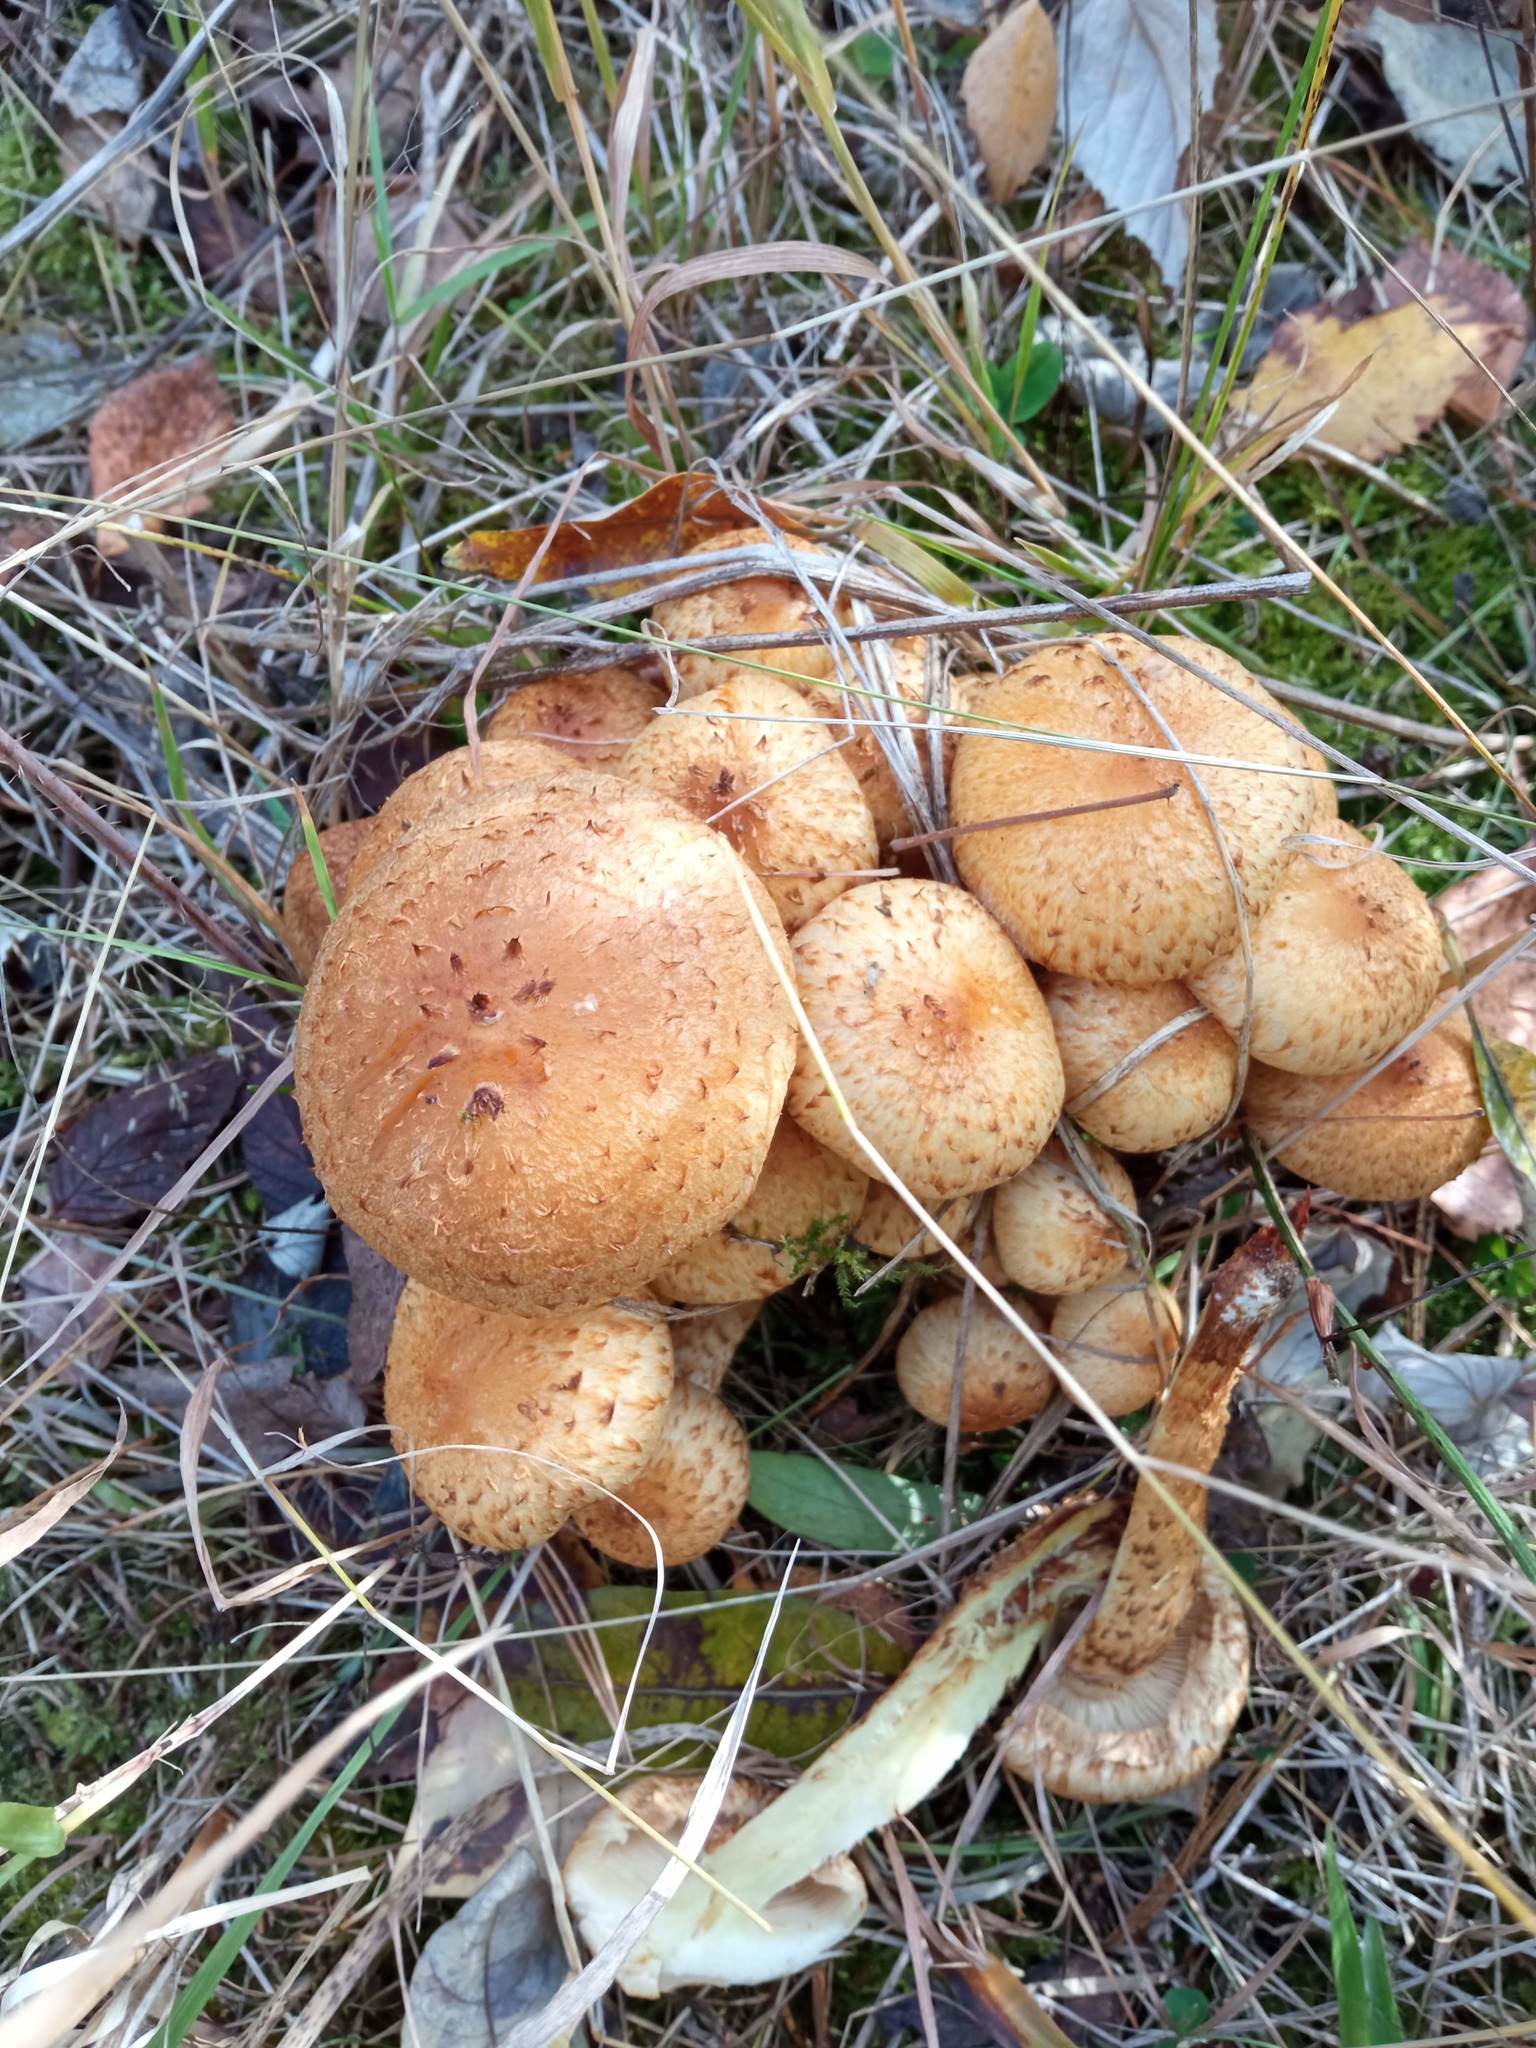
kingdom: Fungi
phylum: Basidiomycota
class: Agaricomycetes
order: Agaricales
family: Strophariaceae
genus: Pholiota
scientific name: Pholiota squarrosa
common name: Shaggy pholiota
